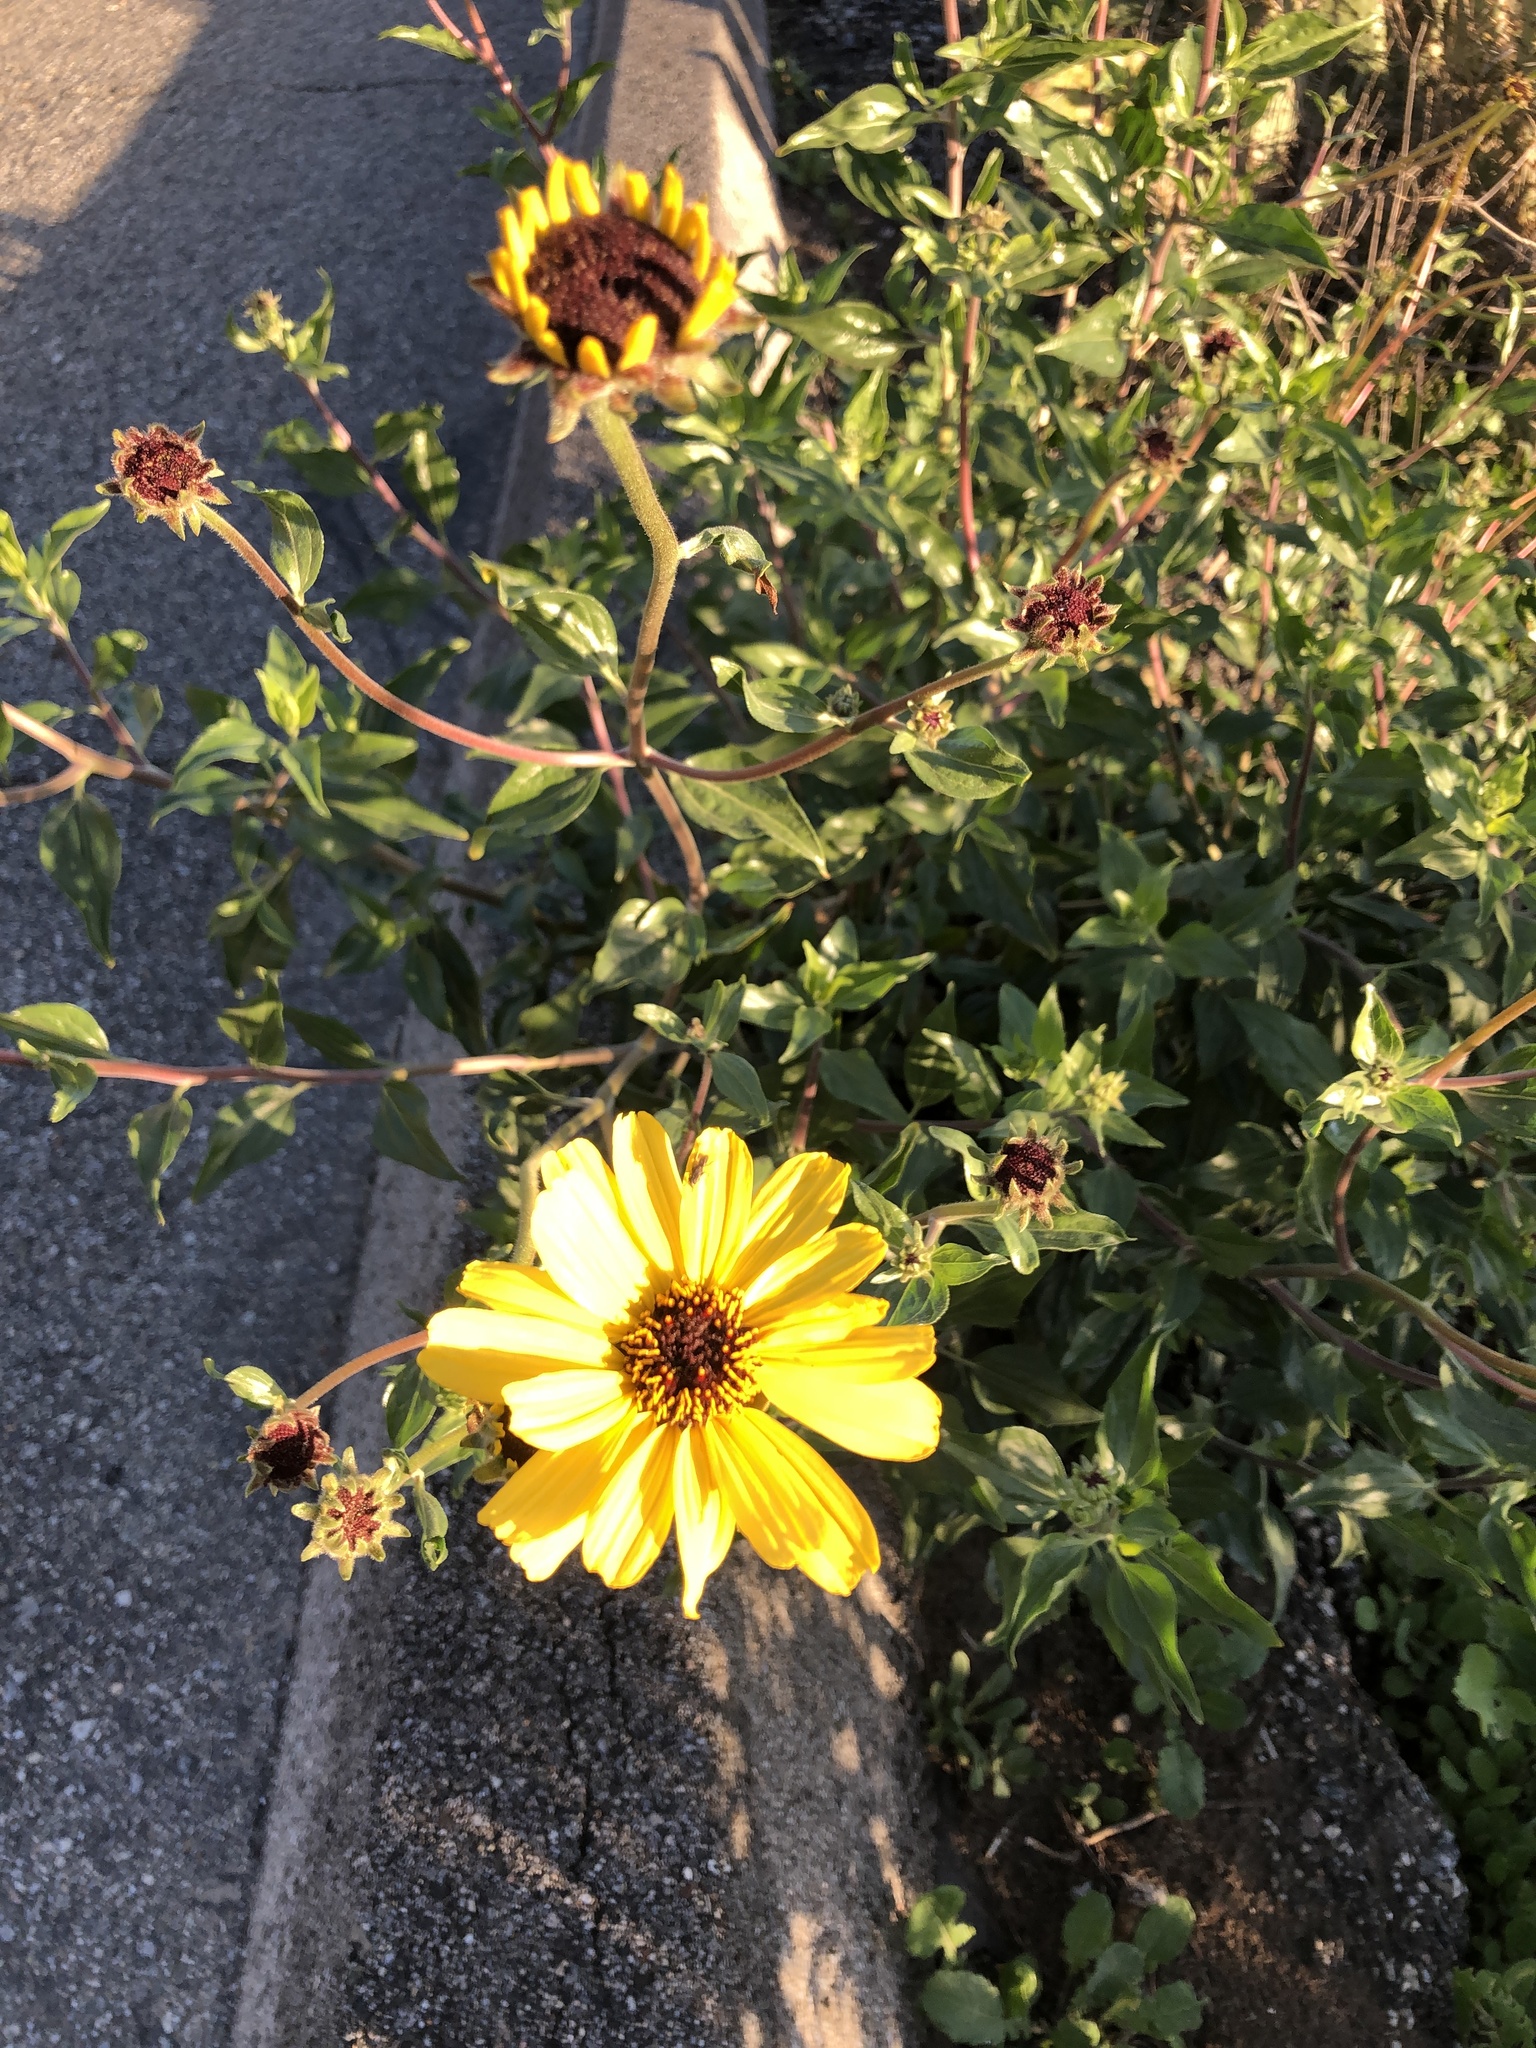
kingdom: Plantae
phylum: Tracheophyta
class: Magnoliopsida
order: Asterales
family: Asteraceae
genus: Encelia
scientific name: Encelia californica
